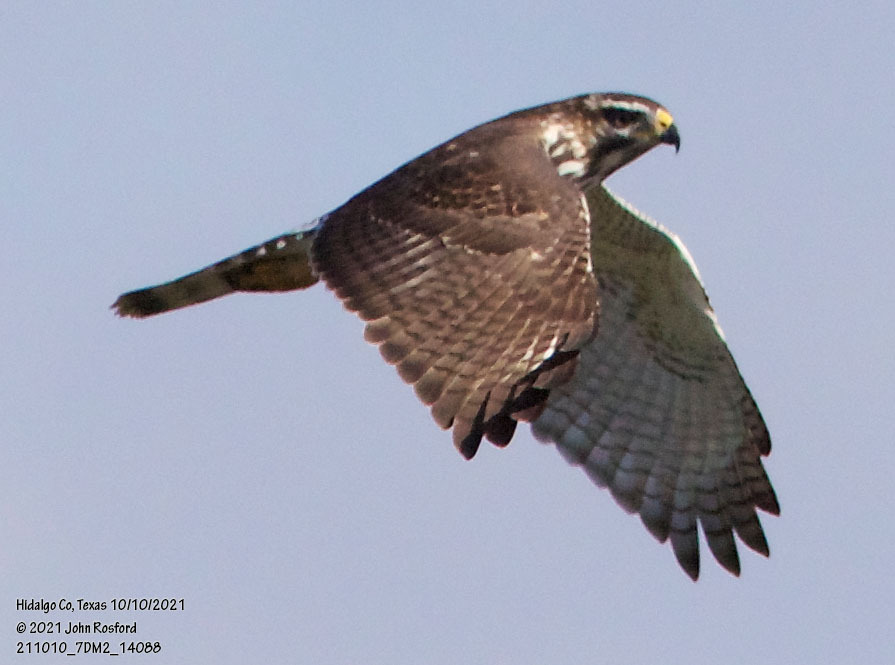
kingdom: Animalia
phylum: Chordata
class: Aves
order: Accipitriformes
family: Accipitridae
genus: Buteo
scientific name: Buteo nitidus
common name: Grey-lined hawk
